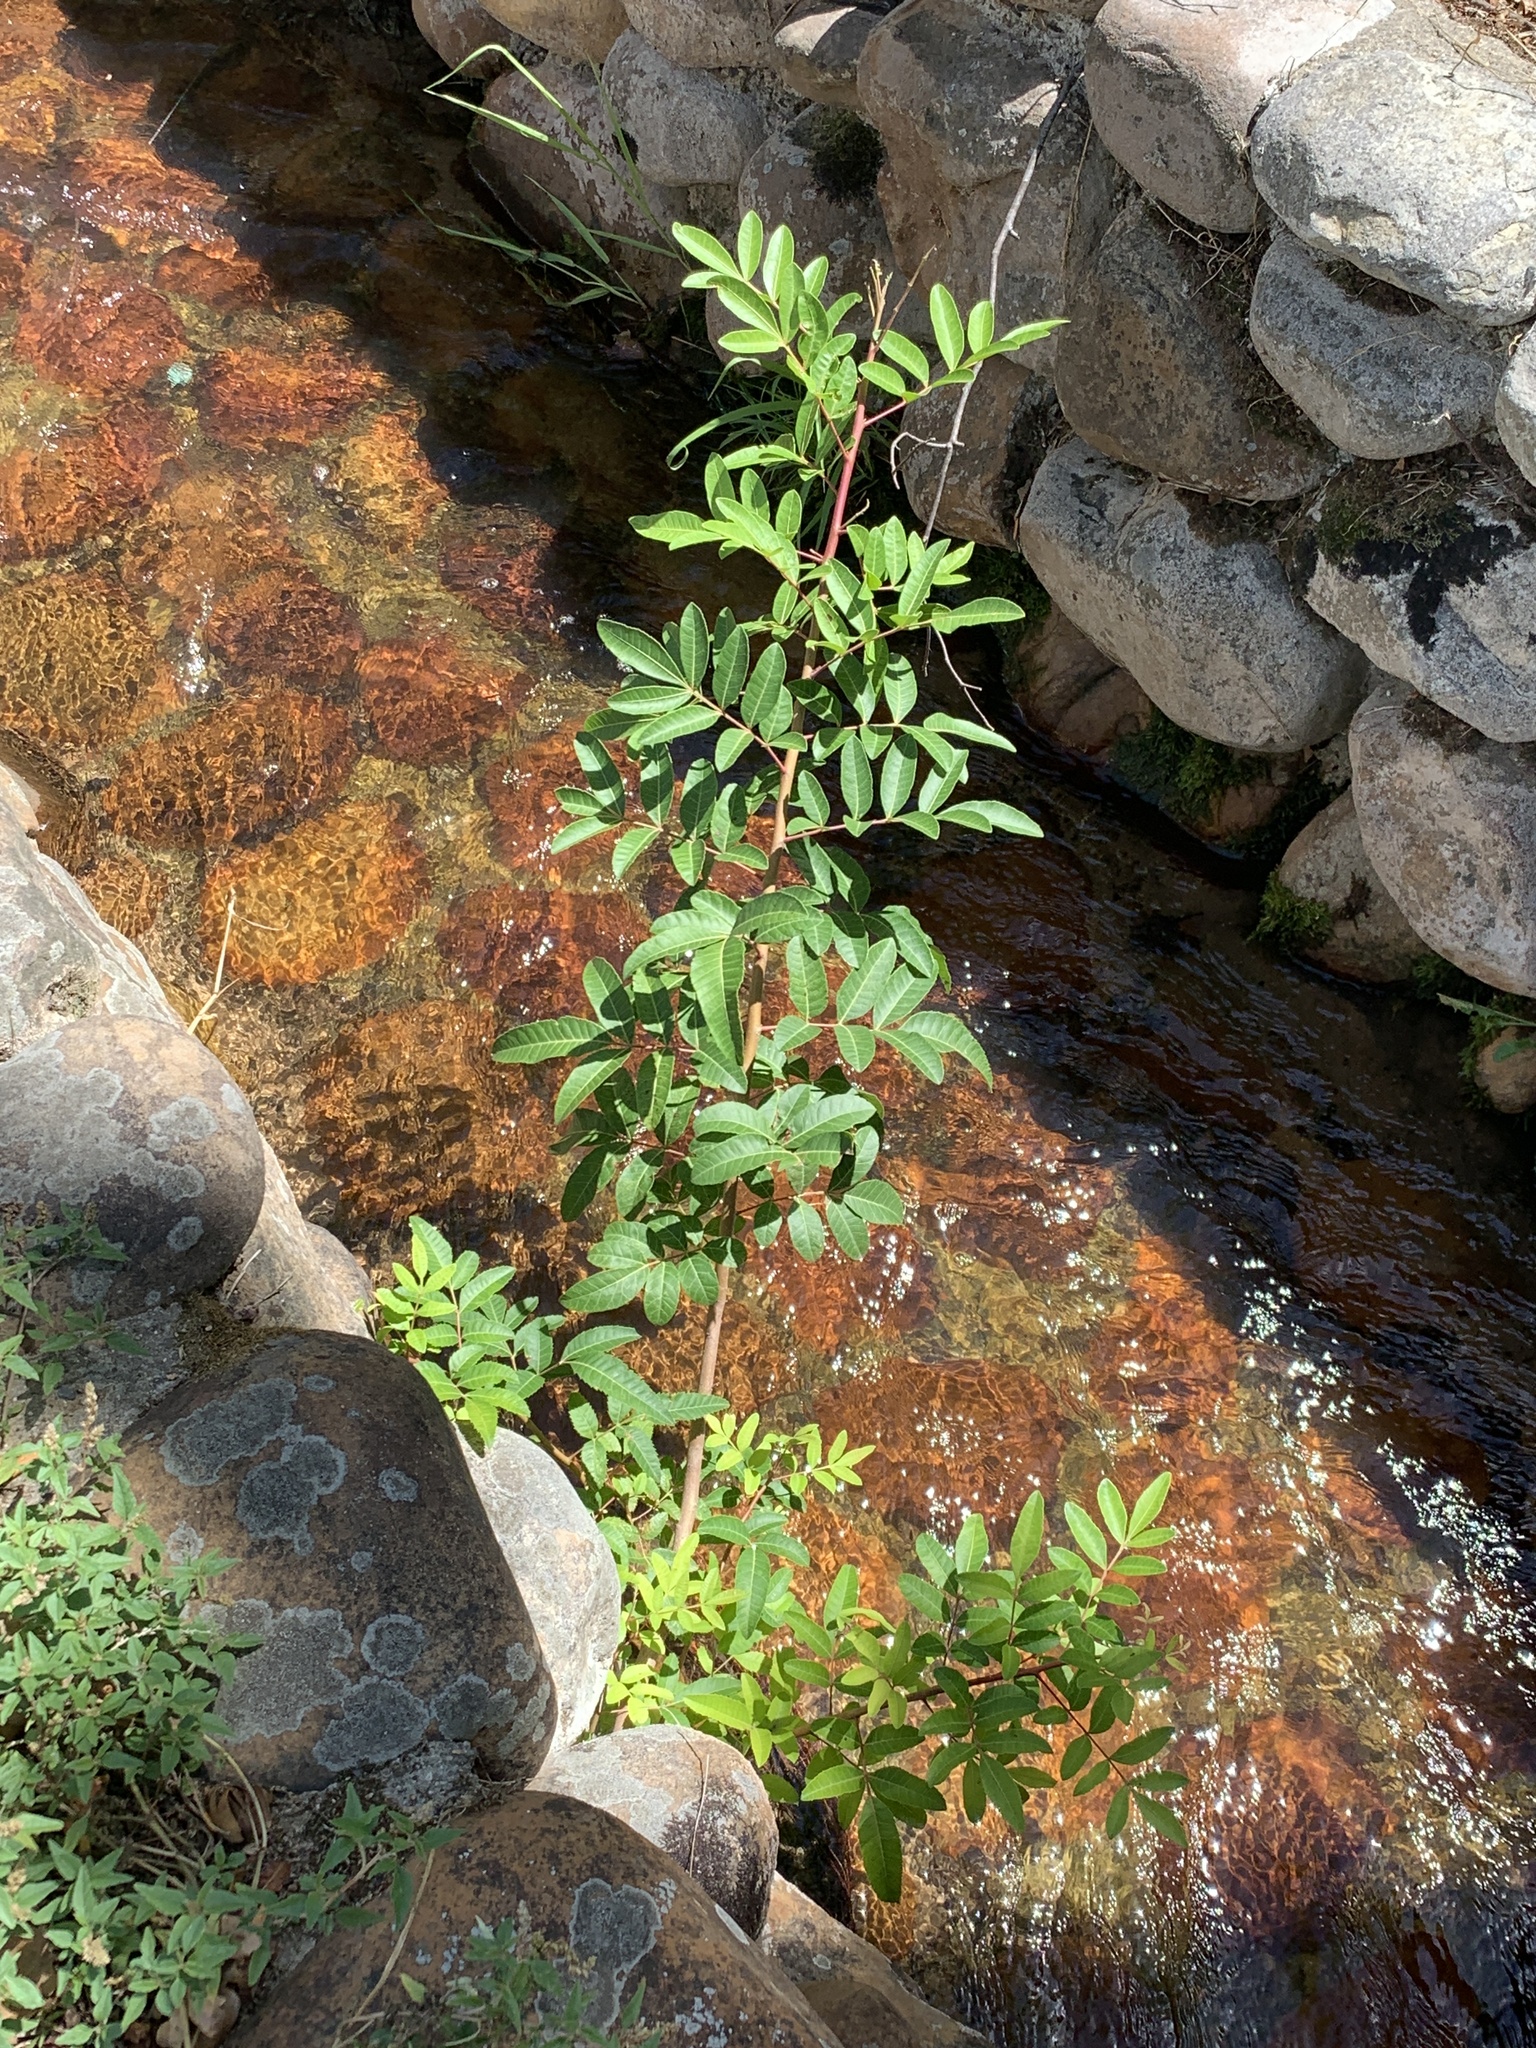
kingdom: Plantae
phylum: Tracheophyta
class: Magnoliopsida
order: Sapindales
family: Anacardiaceae
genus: Schinus
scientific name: Schinus terebinthifolia
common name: Brazilian peppertree
